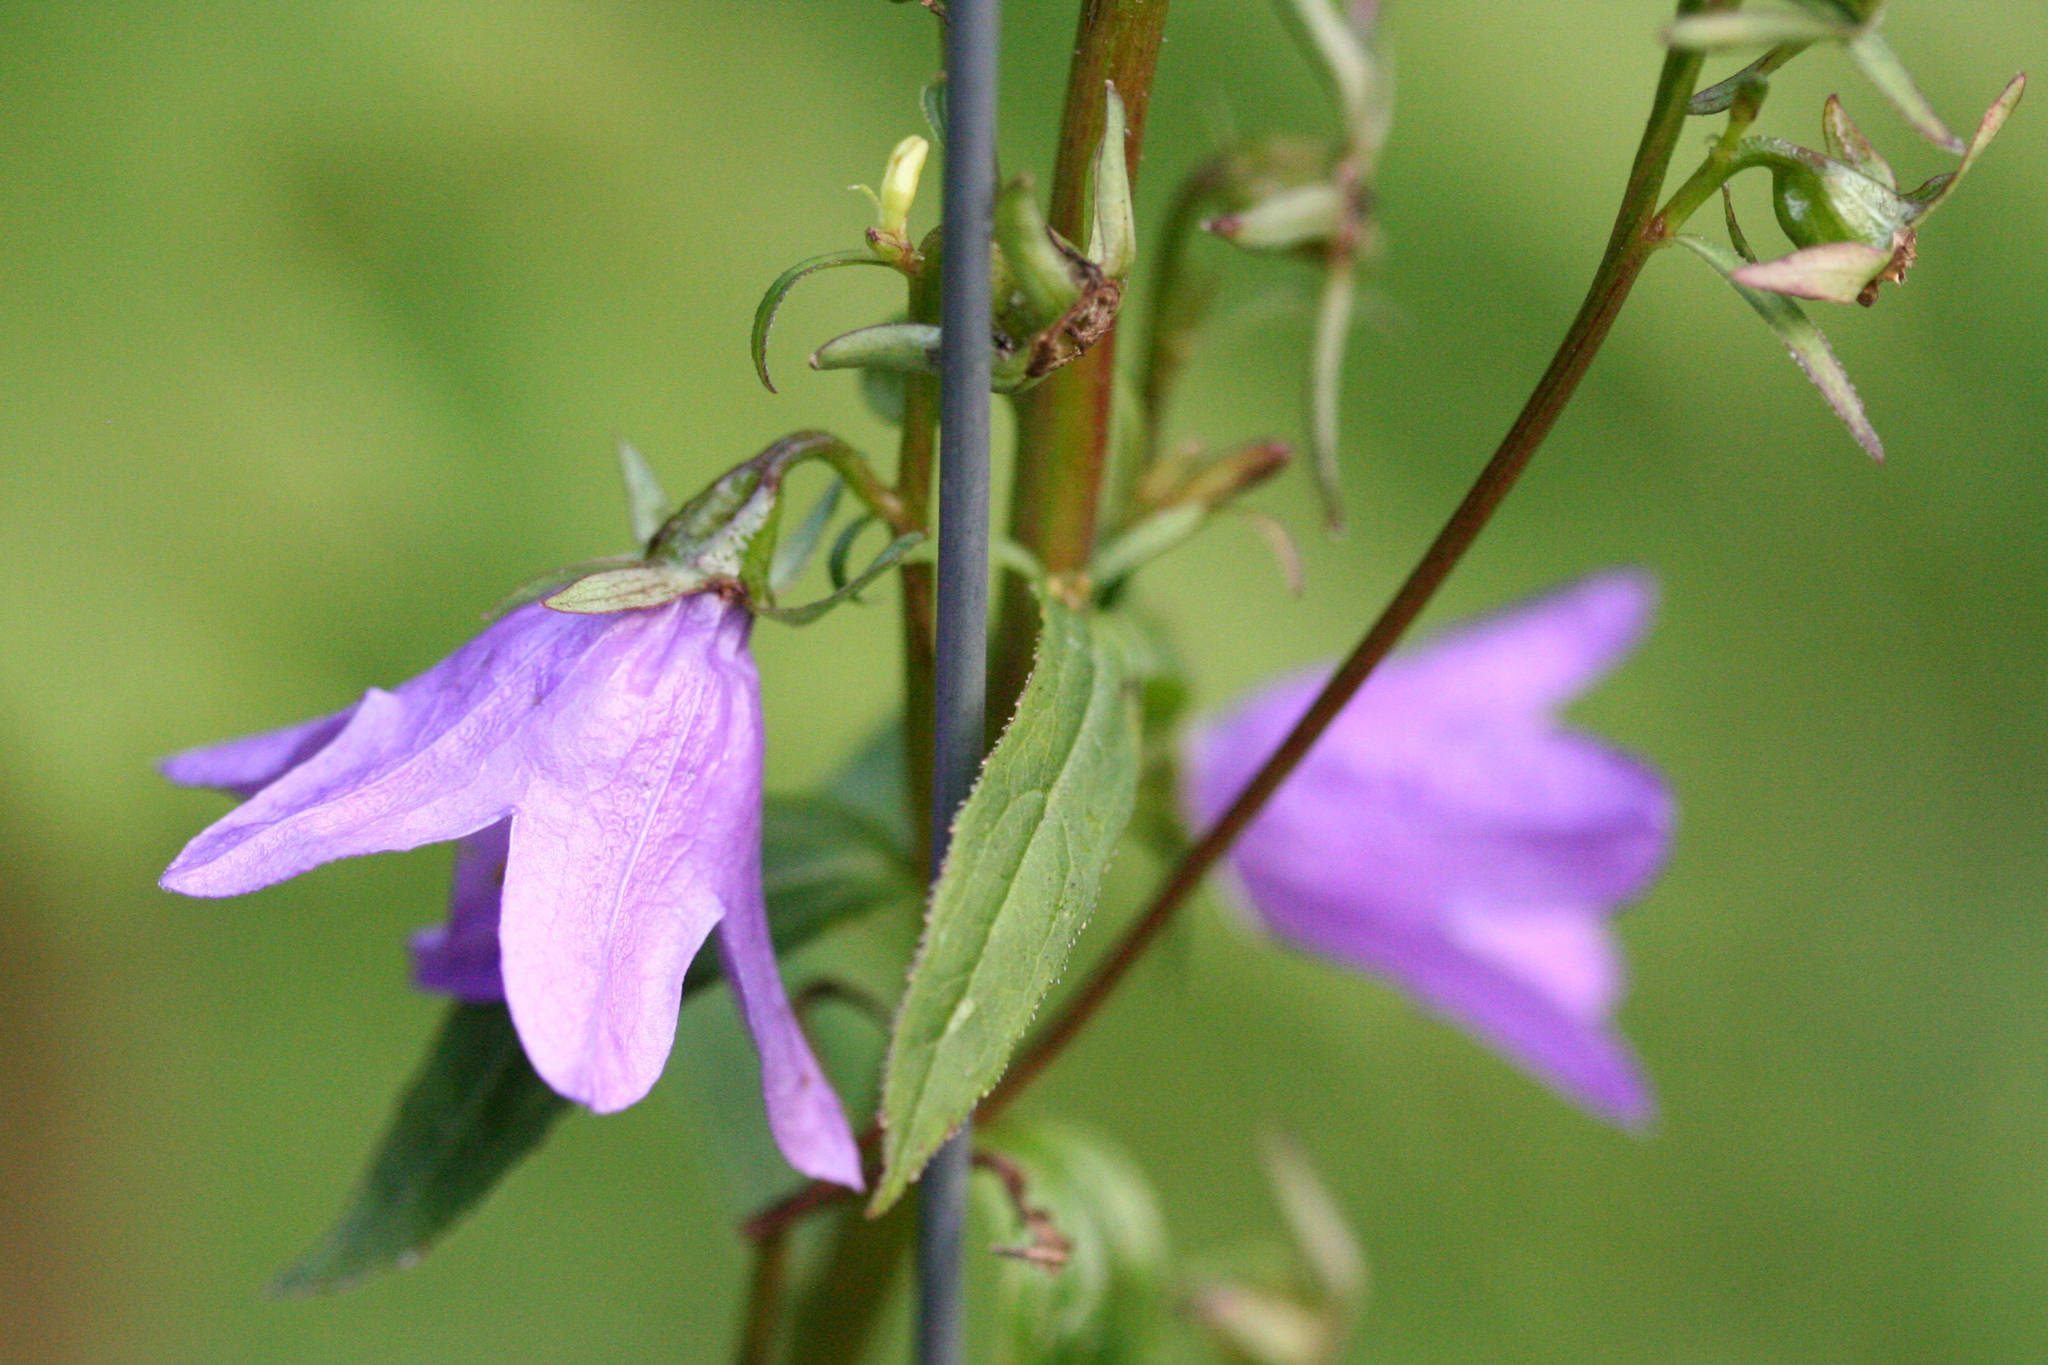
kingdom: Plantae
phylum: Tracheophyta
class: Magnoliopsida
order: Asterales
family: Campanulaceae
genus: Campanula
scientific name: Campanula rapunculoides
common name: Creeping bellflower
